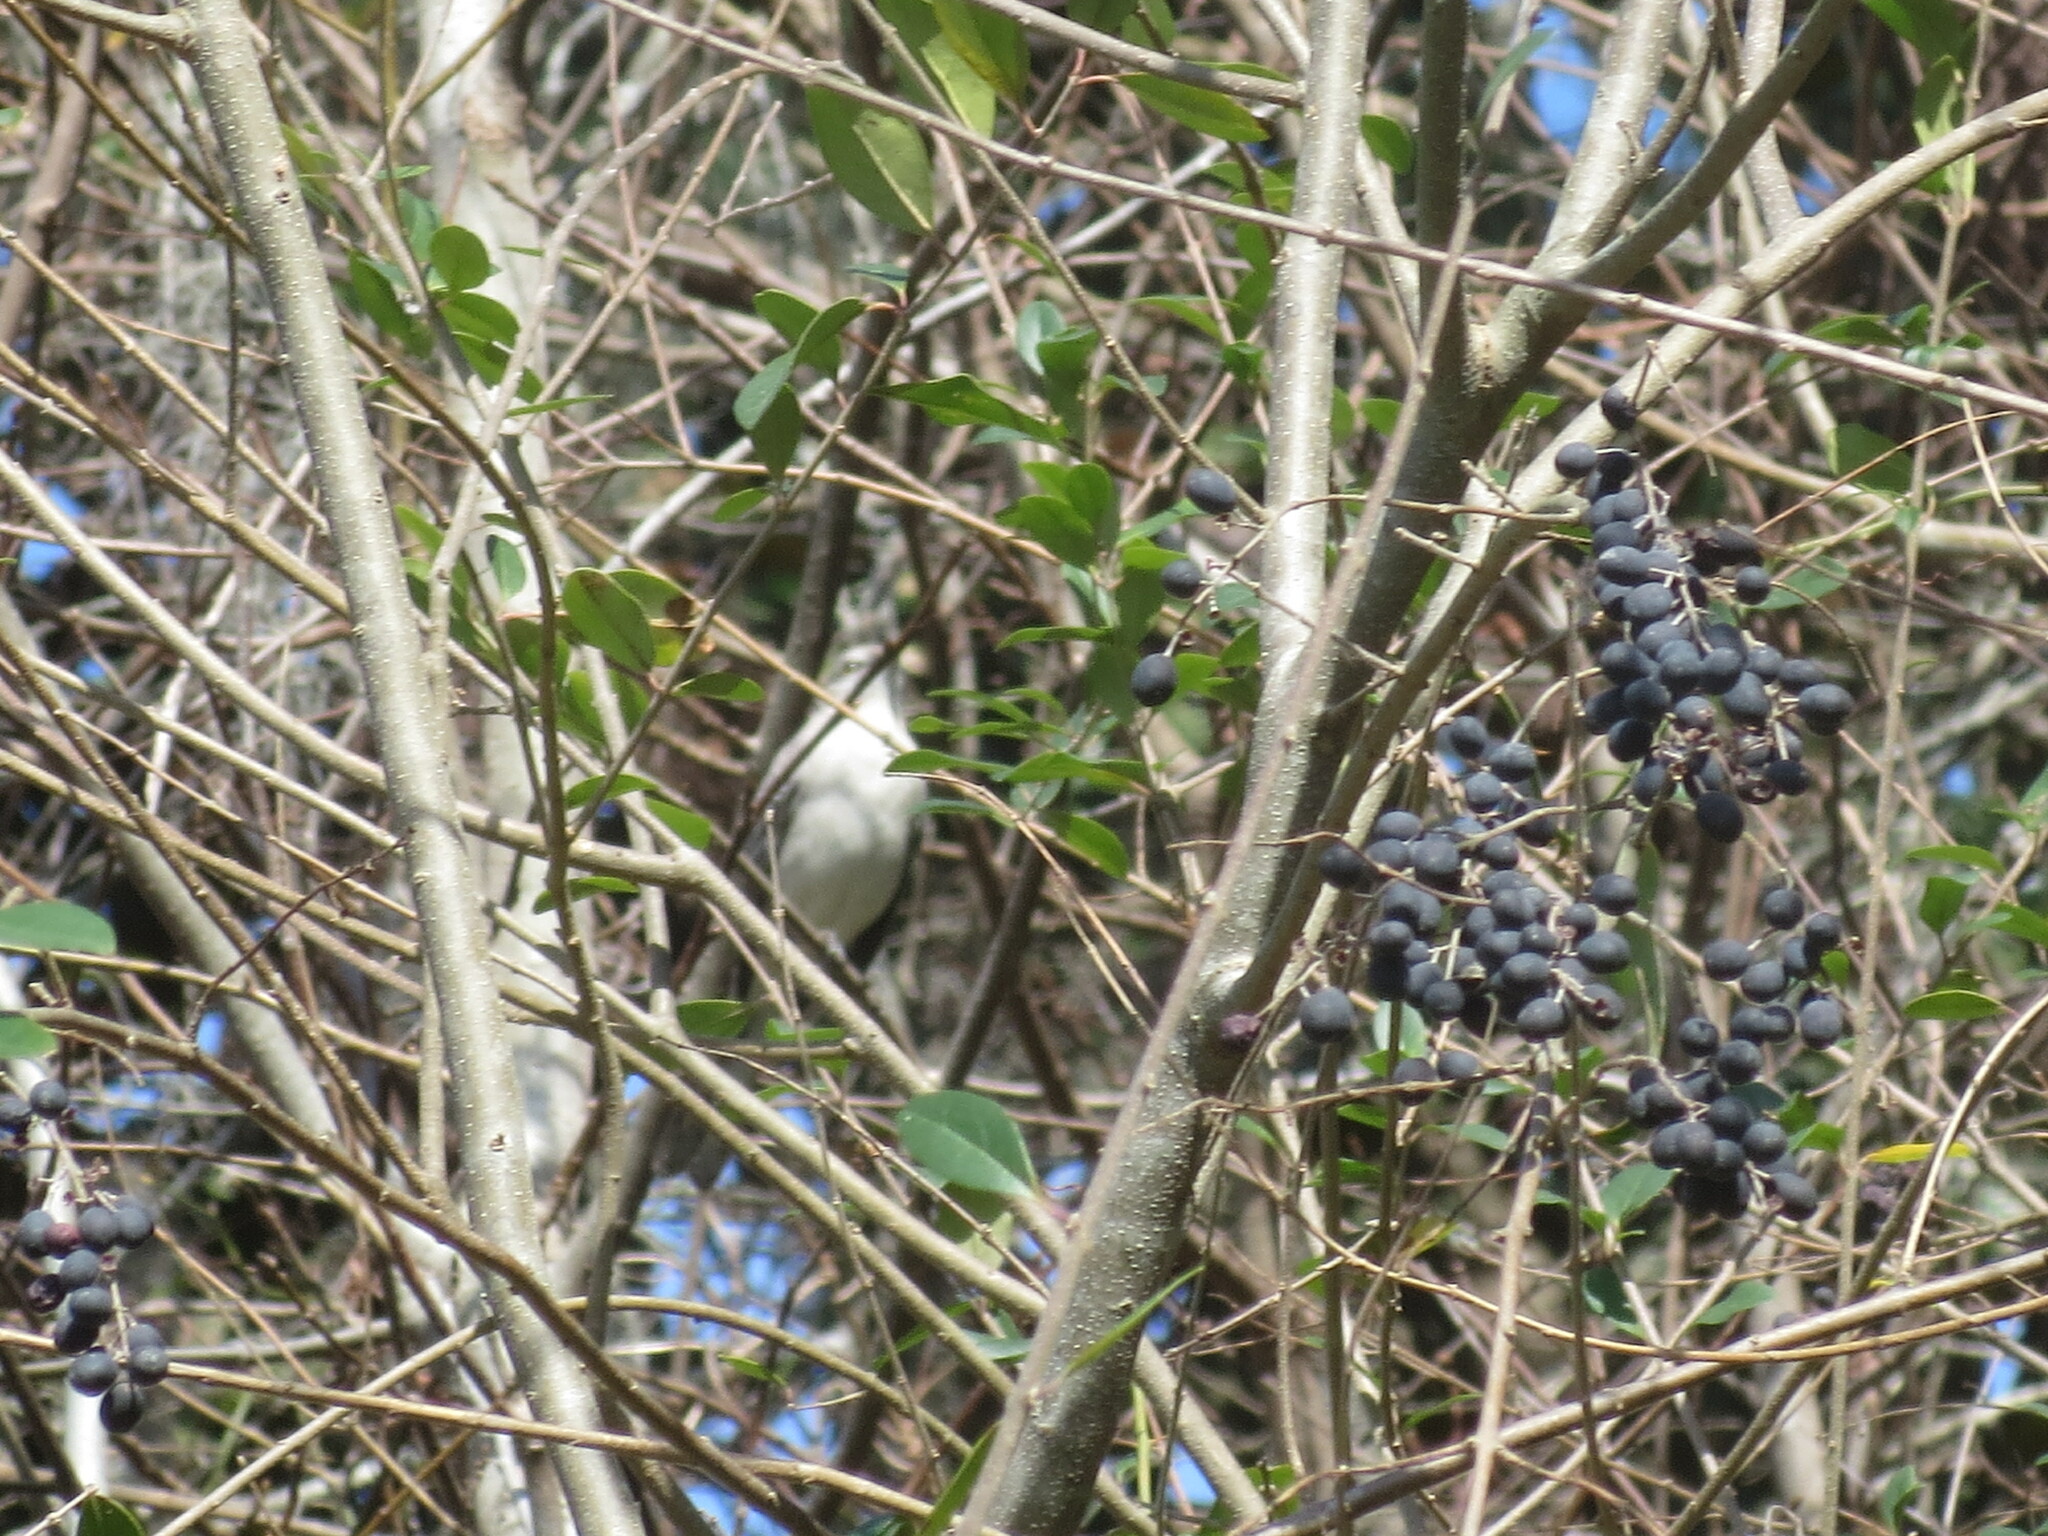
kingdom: Animalia
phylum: Chordata
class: Aves
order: Passeriformes
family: Mimidae
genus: Mimus
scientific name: Mimus polyglottos
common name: Northern mockingbird
